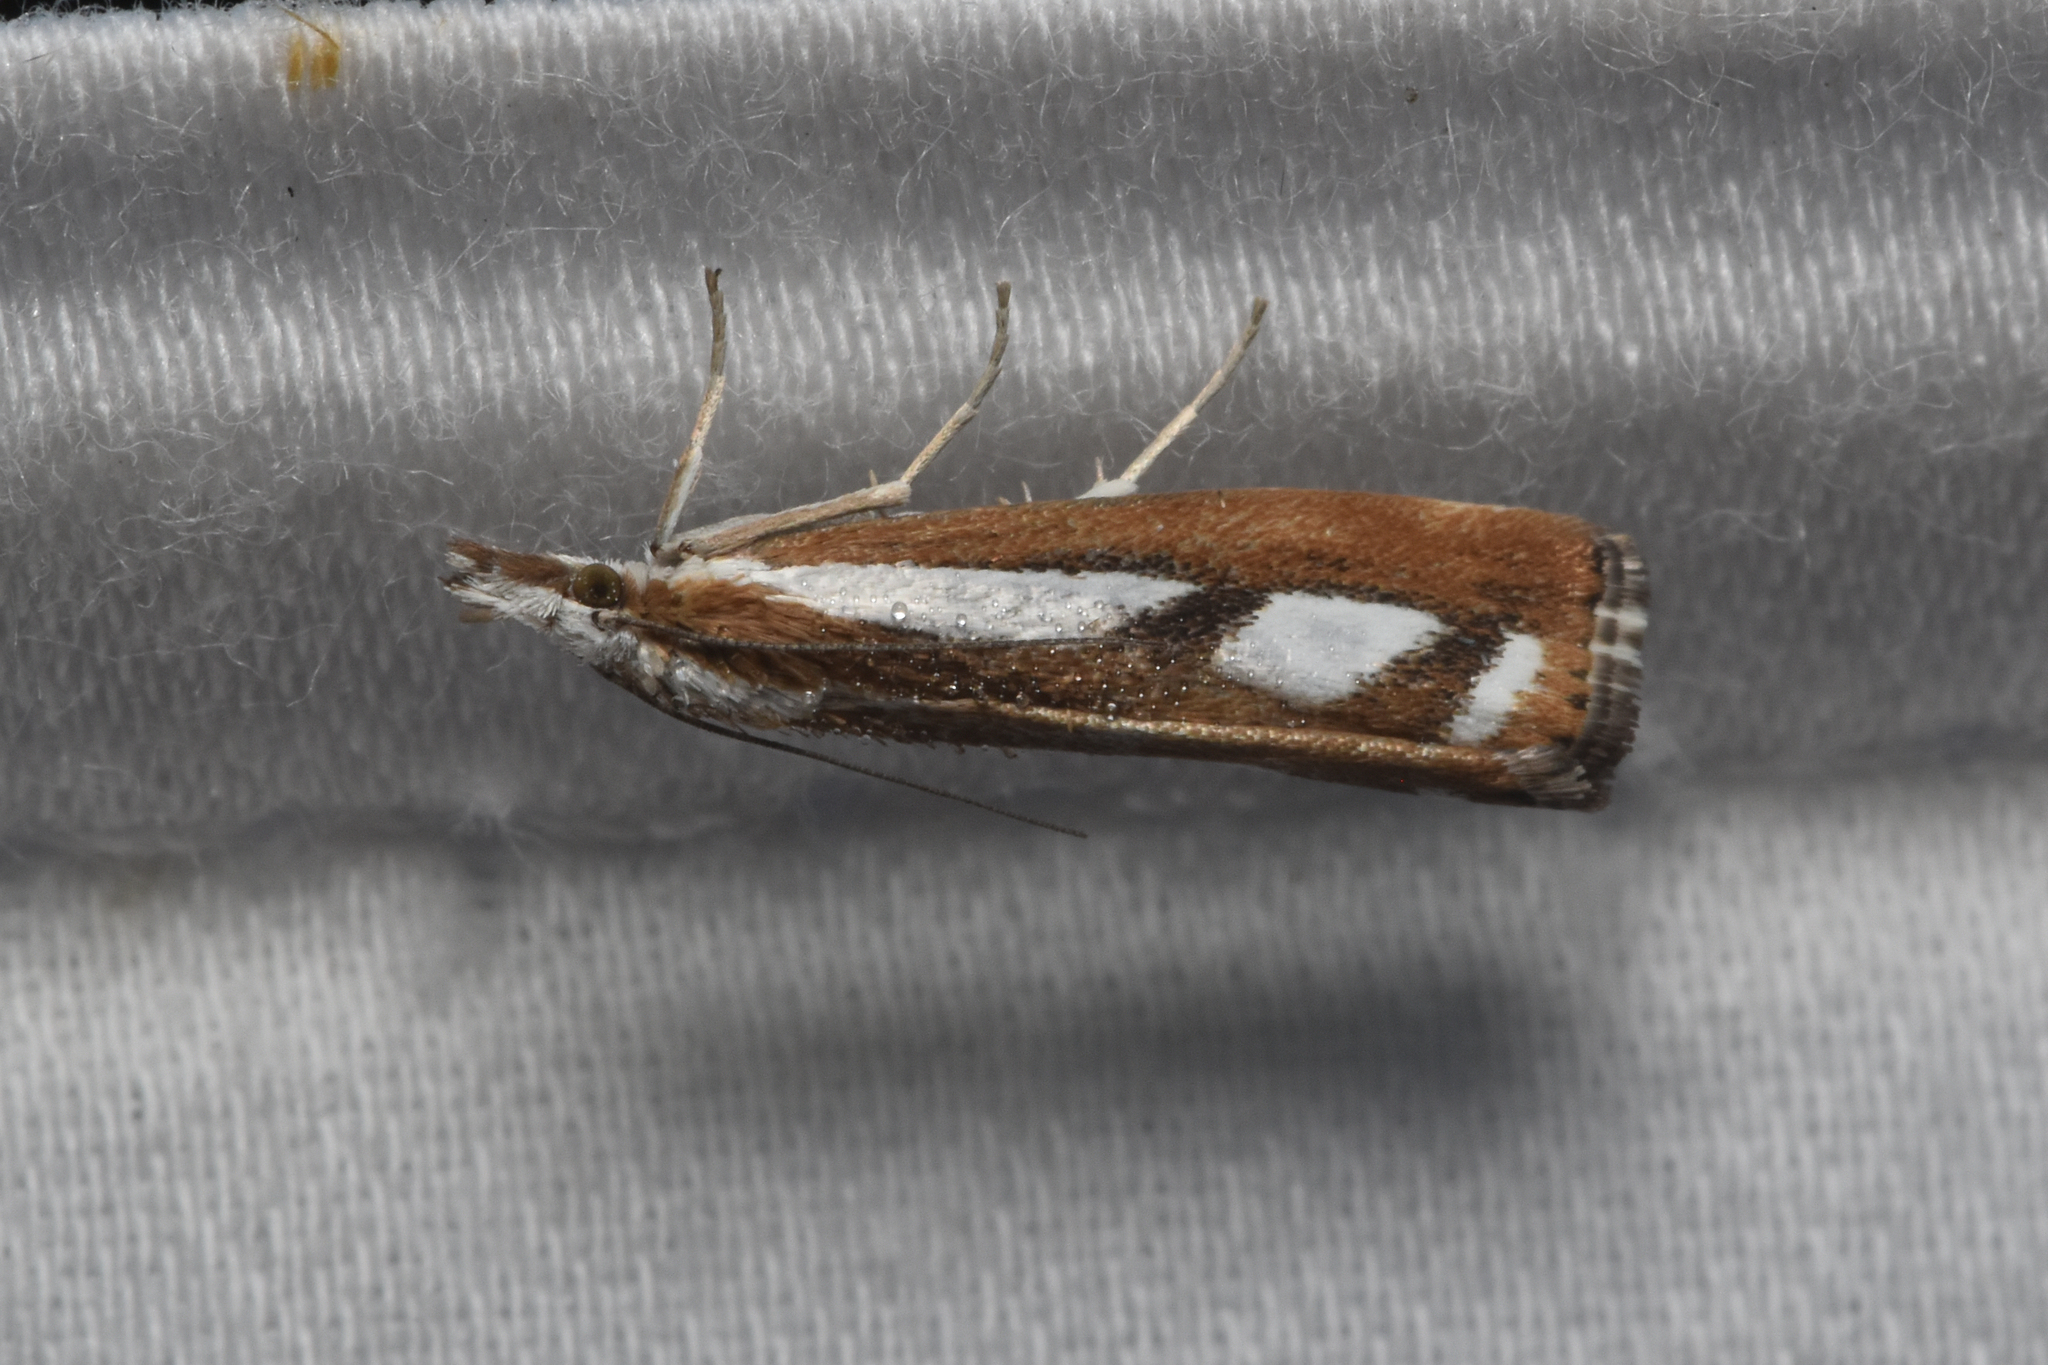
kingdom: Animalia
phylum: Arthropoda
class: Insecta
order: Lepidoptera
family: Crambidae
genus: Catoptria
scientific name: Catoptria latiradiellus
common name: Two-banded catoptria moth
